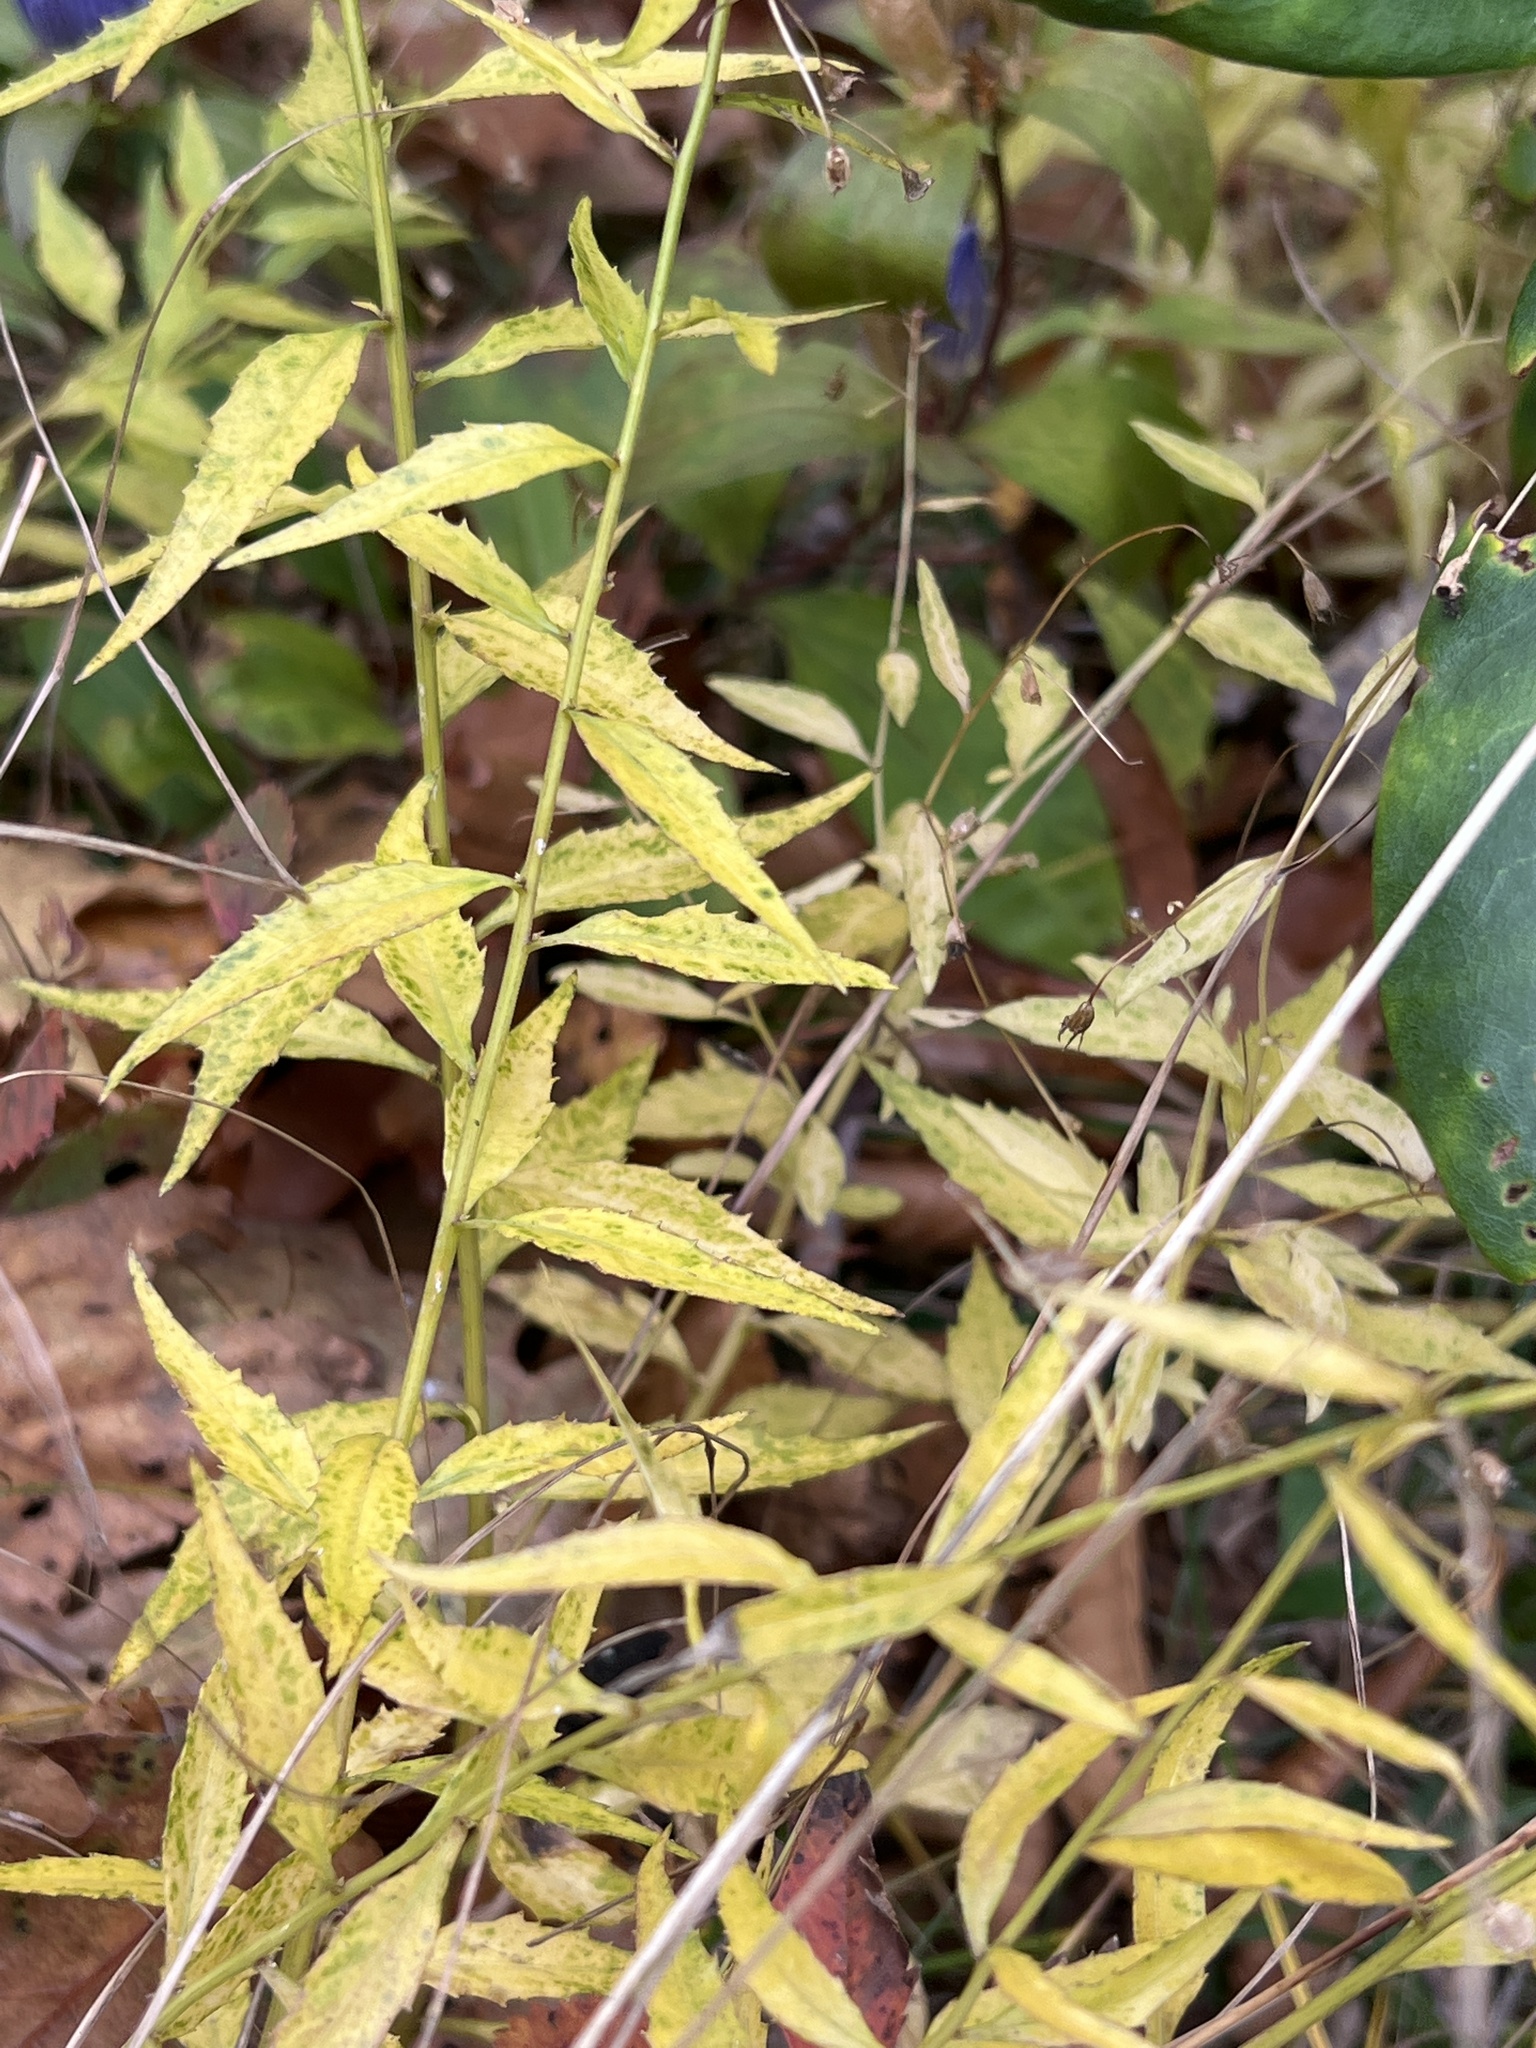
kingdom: Plantae
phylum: Tracheophyta
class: Magnoliopsida
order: Asterales
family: Campanulaceae
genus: Campanula
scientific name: Campanula divaricata
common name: Appalachian bellflower
